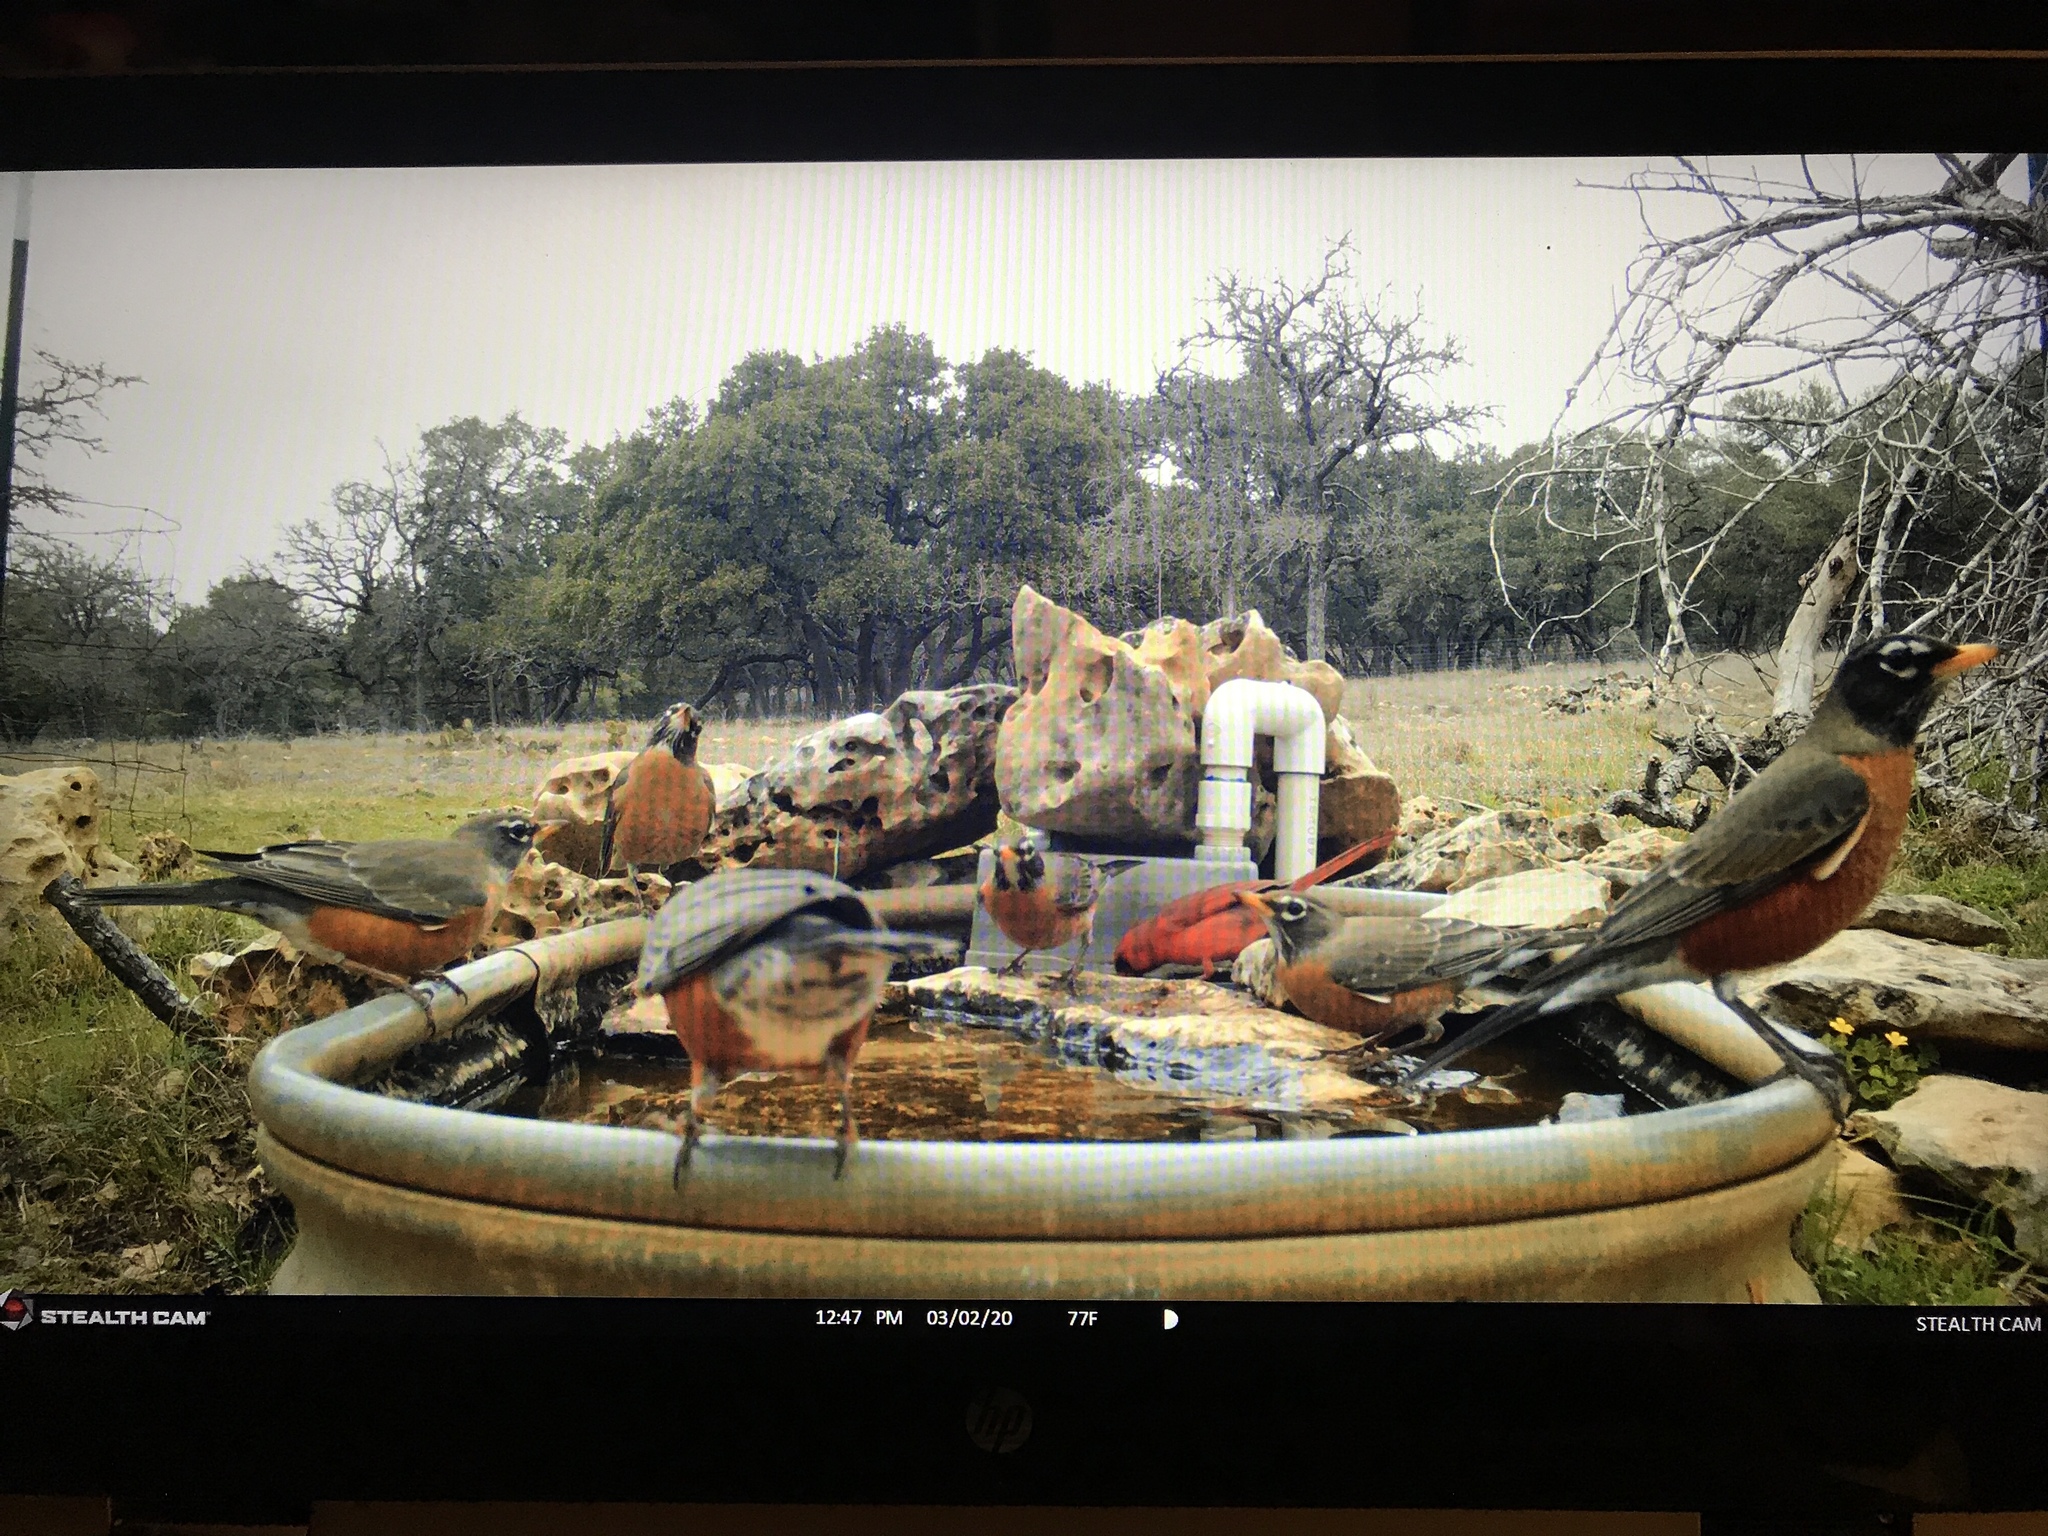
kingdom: Animalia
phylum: Chordata
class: Aves
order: Passeriformes
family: Turdidae
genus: Turdus
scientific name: Turdus migratorius
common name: American robin
